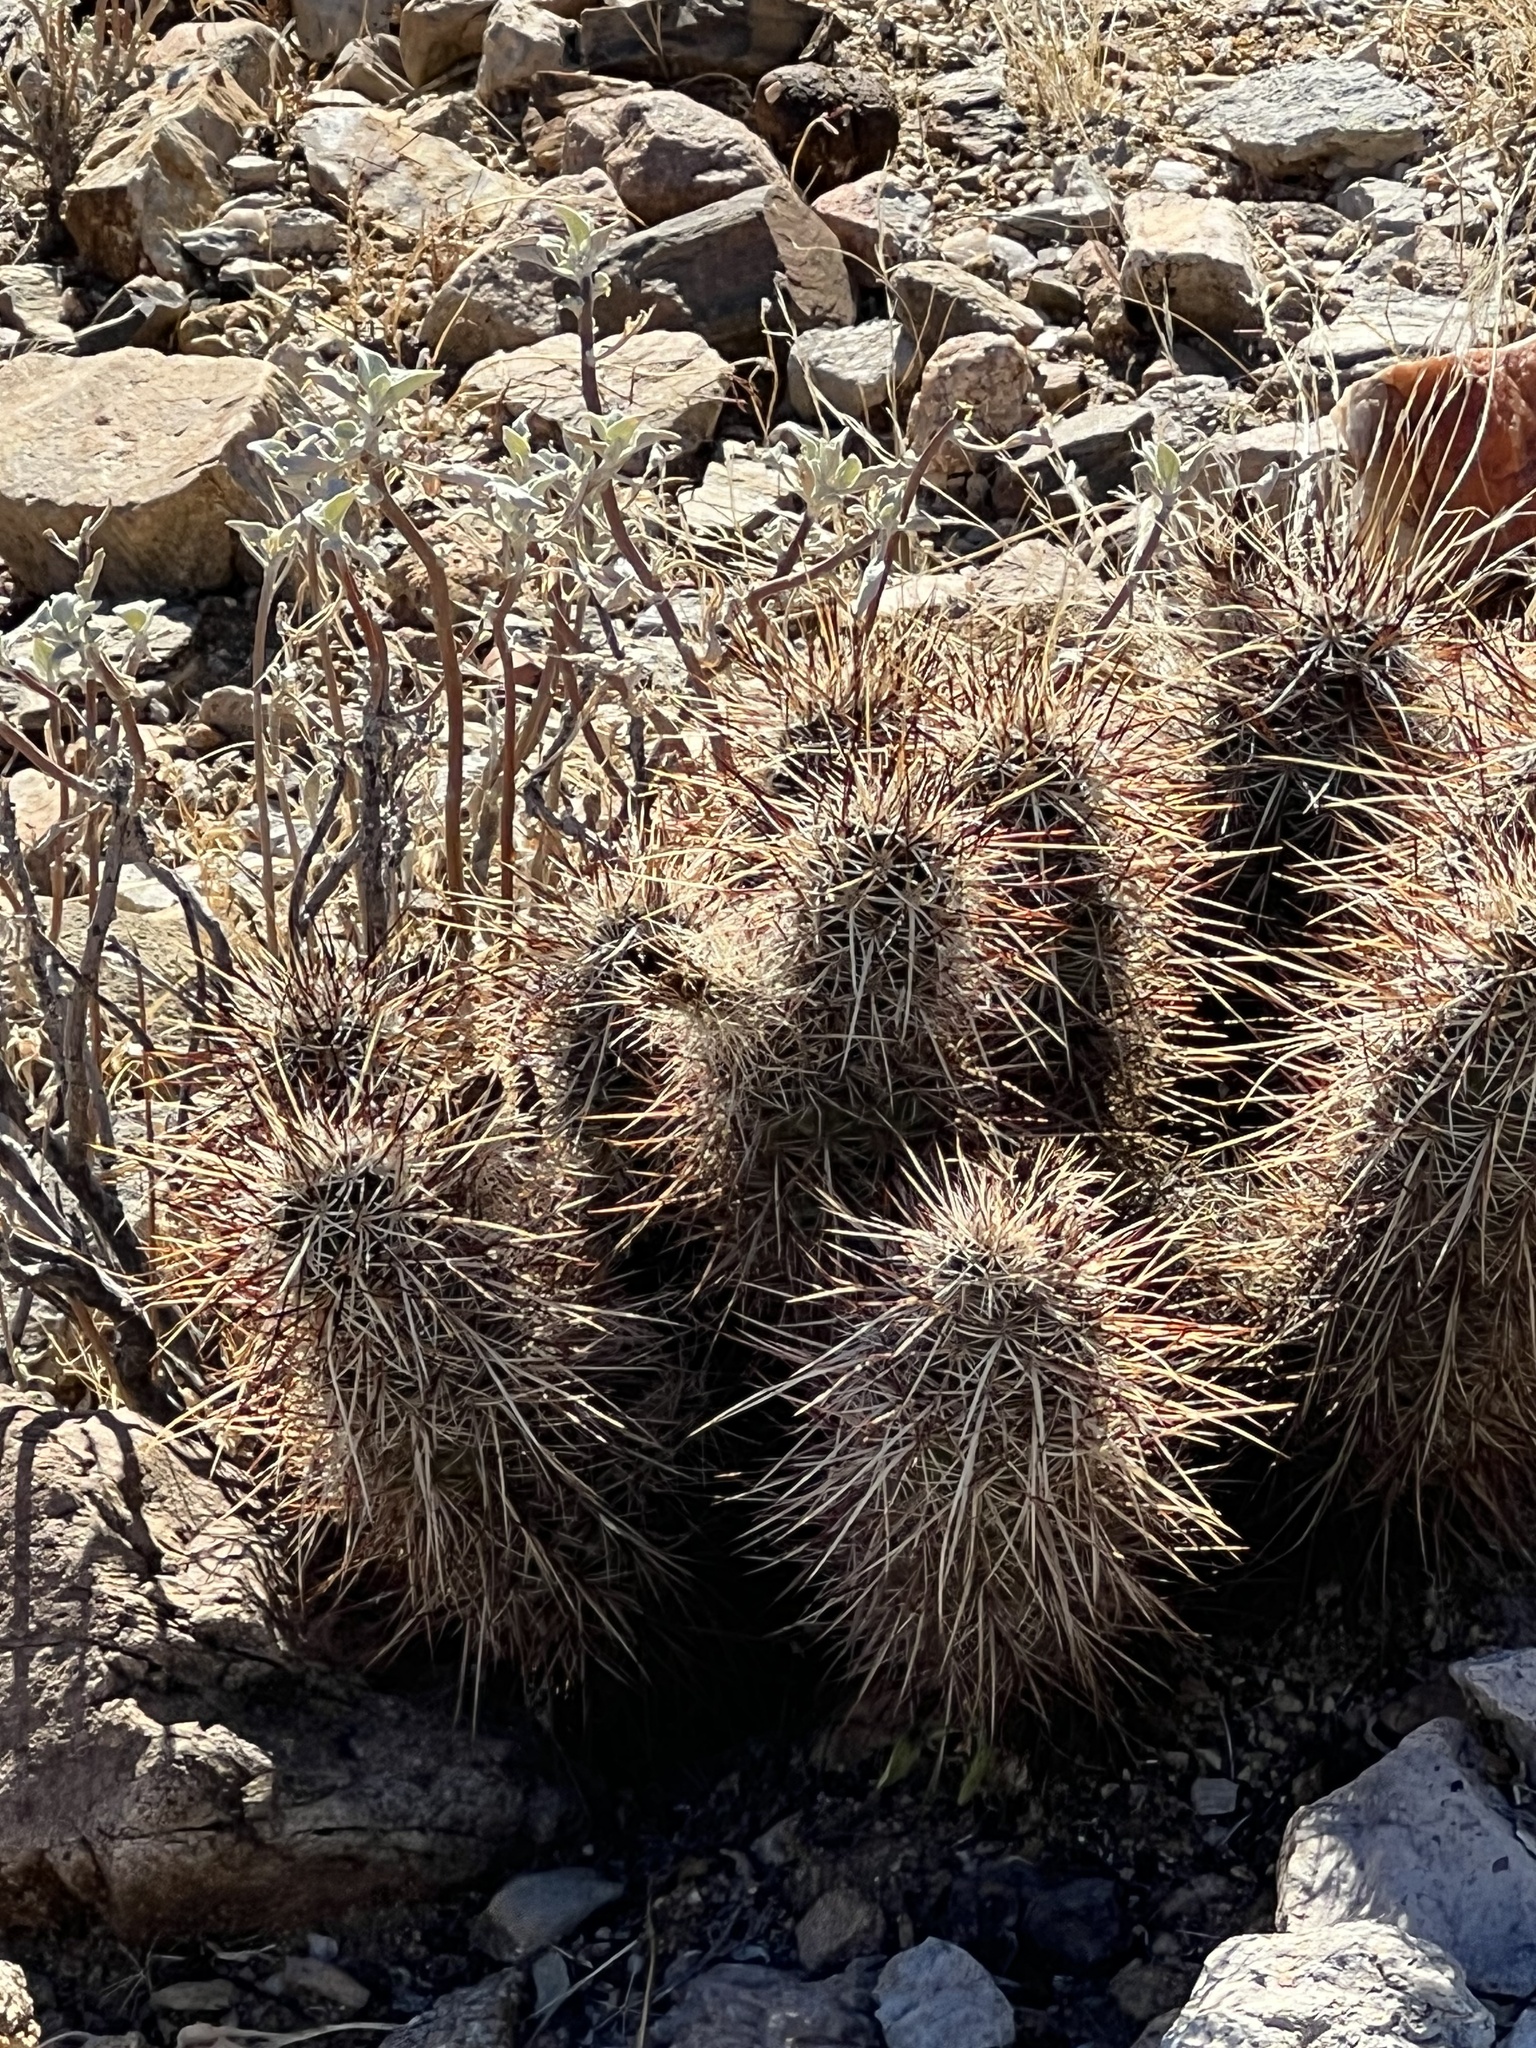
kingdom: Plantae
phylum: Tracheophyta
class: Magnoliopsida
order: Caryophyllales
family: Cactaceae
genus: Echinocereus
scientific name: Echinocereus engelmannii
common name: Engelmann's hedgehog cactus
